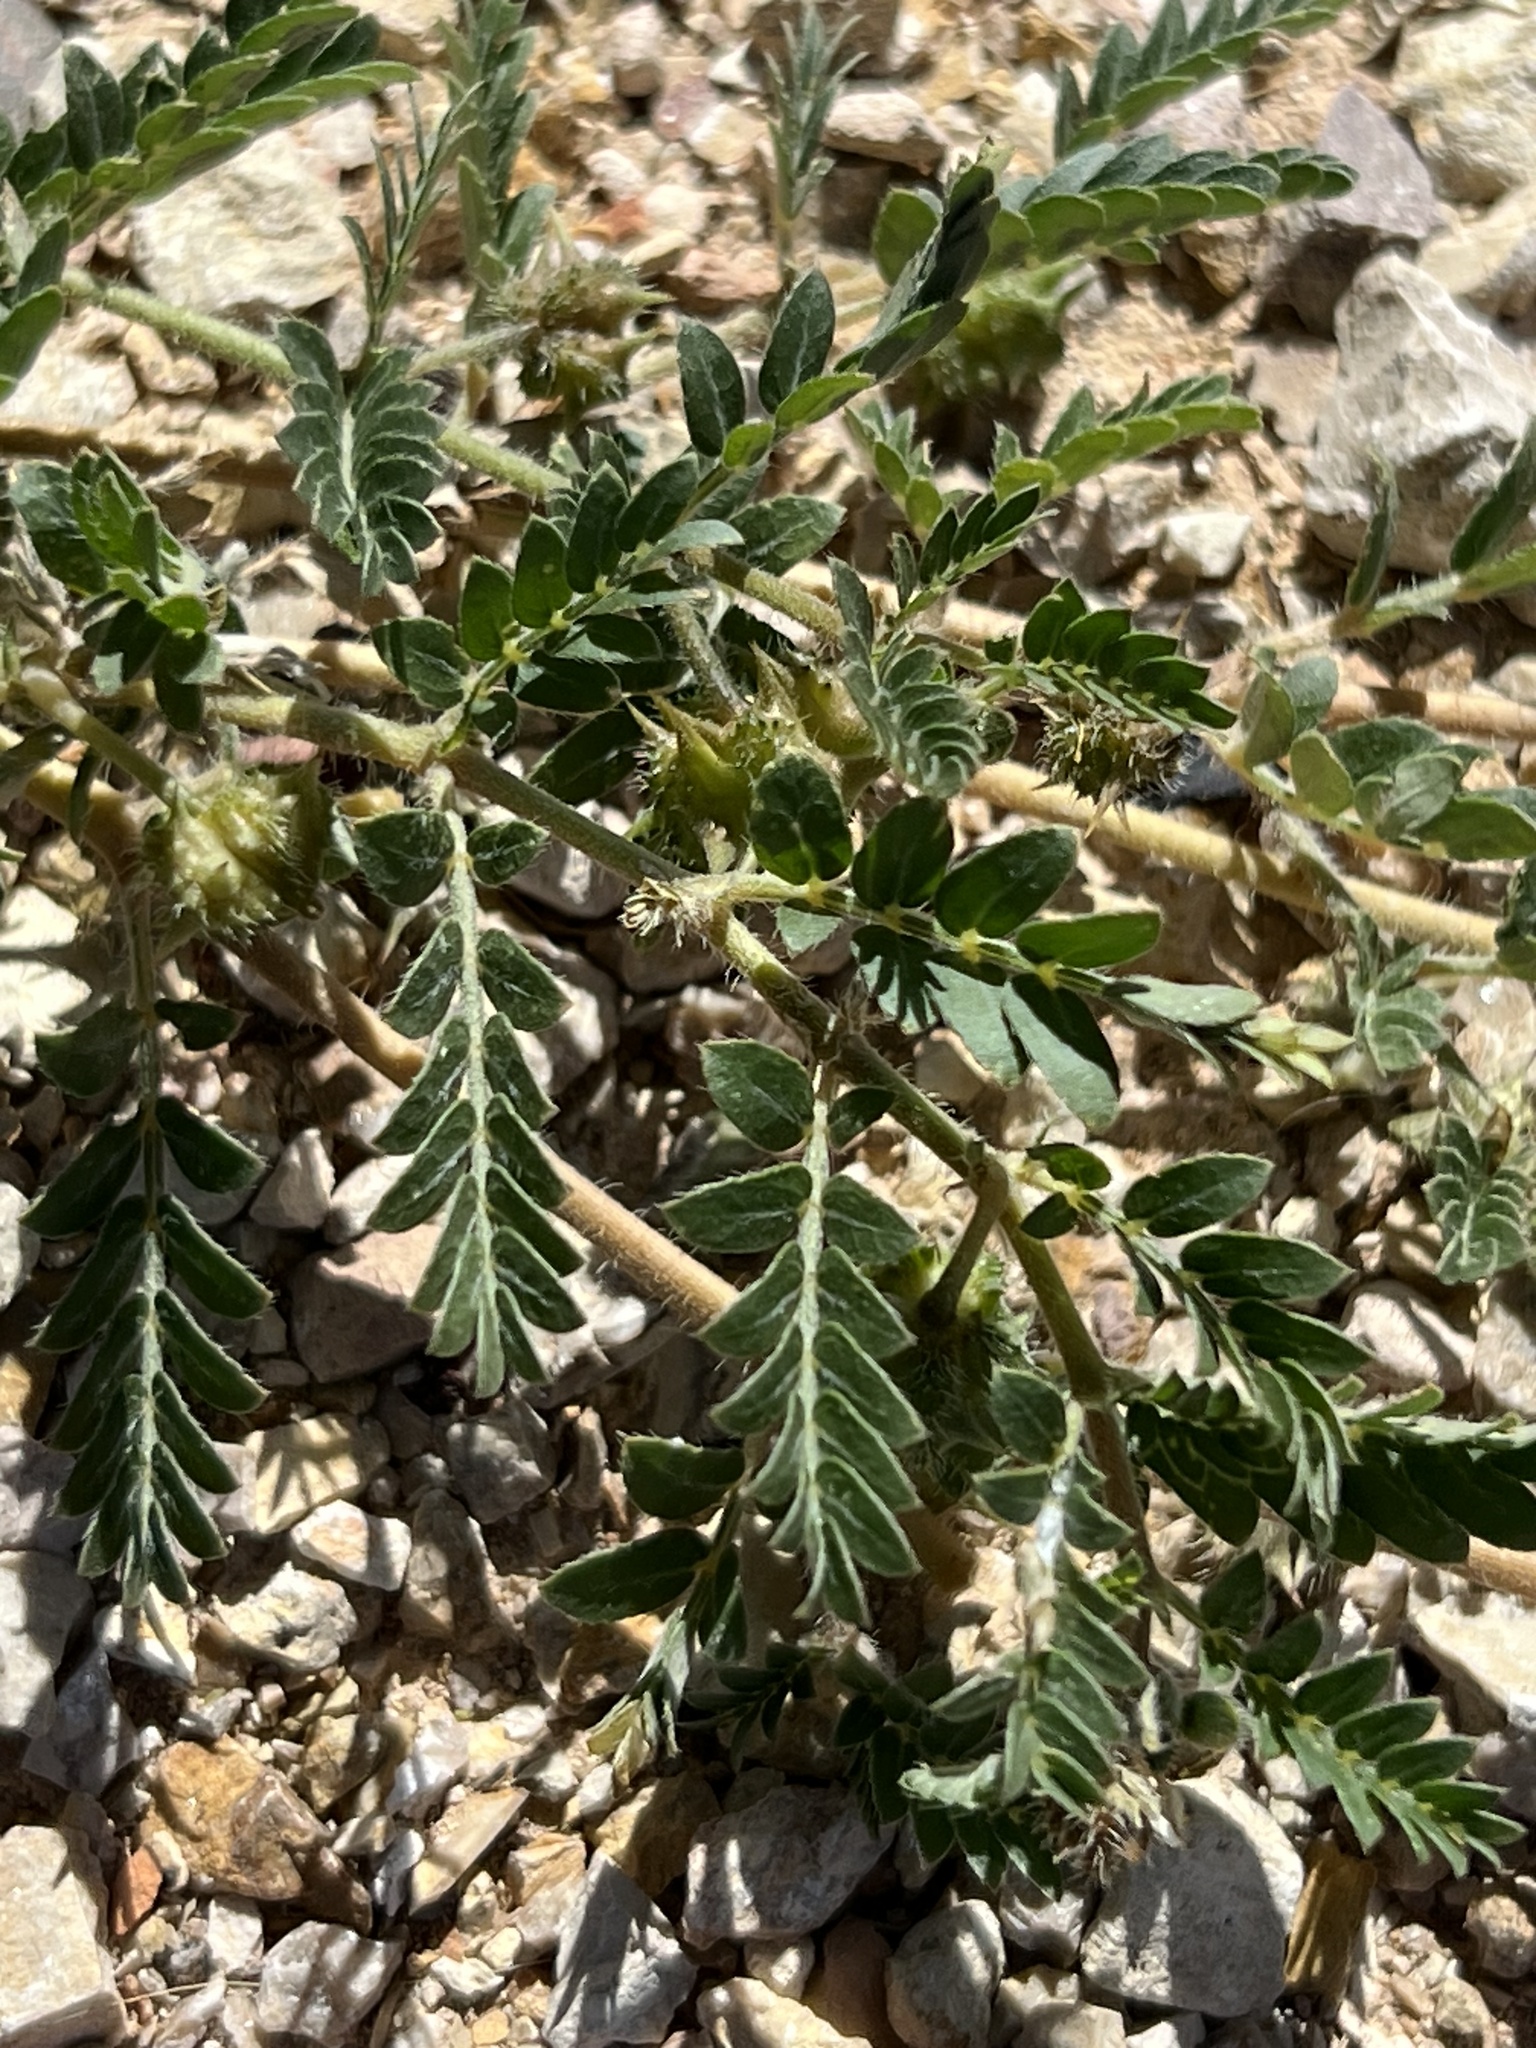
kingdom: Plantae
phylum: Tracheophyta
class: Magnoliopsida
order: Zygophyllales
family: Zygophyllaceae
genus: Tribulus
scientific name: Tribulus terrestris
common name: Puncturevine
